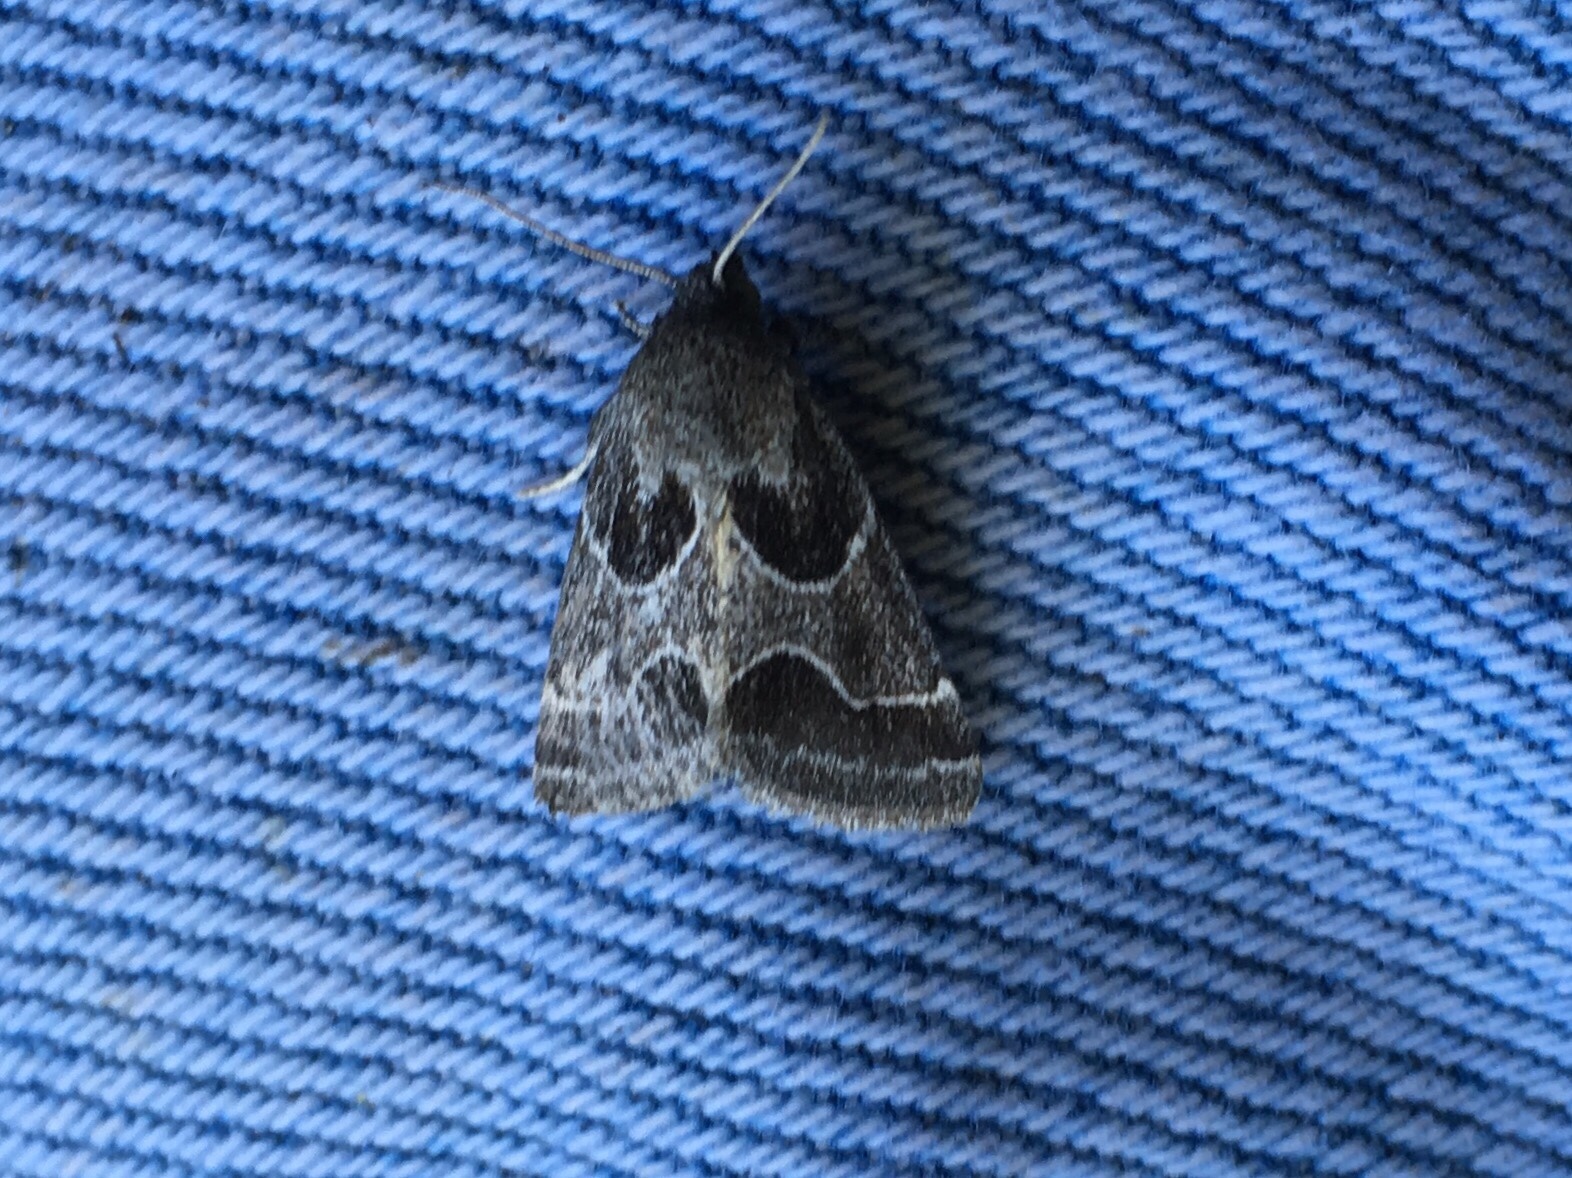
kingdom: Animalia
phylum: Arthropoda
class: Insecta
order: Lepidoptera
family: Noctuidae
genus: Schinia
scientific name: Schinia rivulosa
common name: Scarce meal-moth
